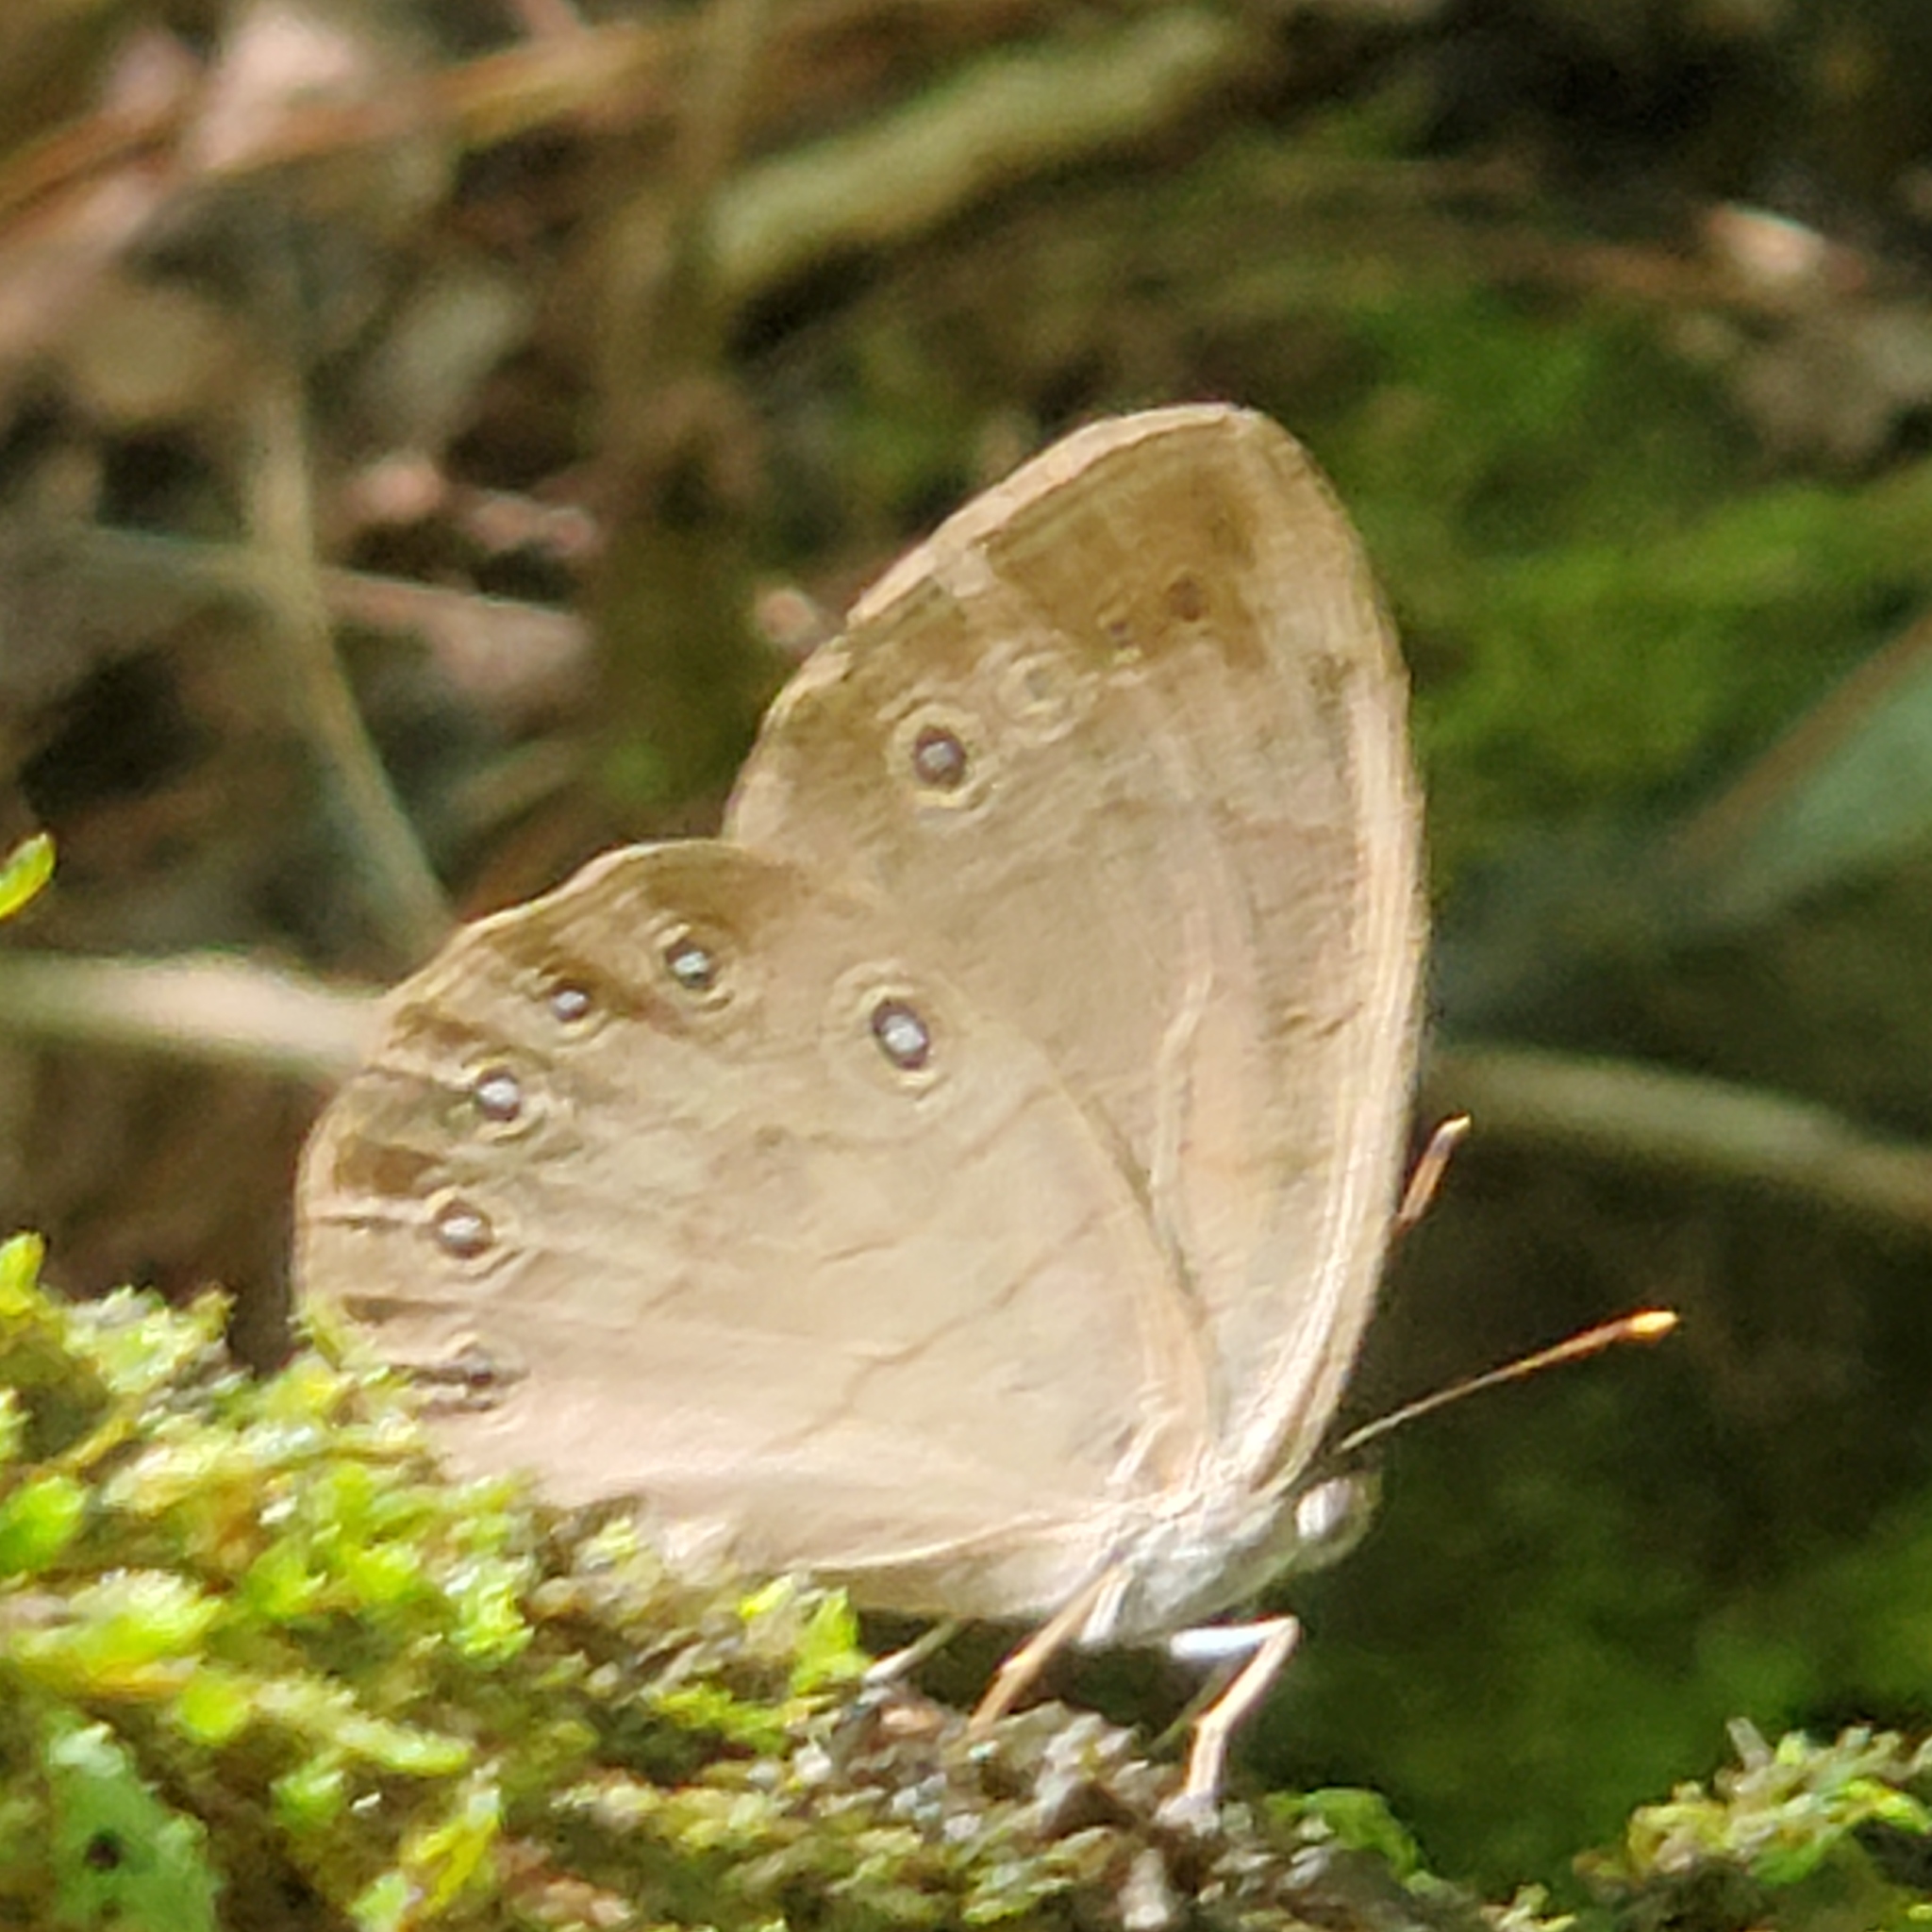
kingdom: Animalia
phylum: Arthropoda
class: Insecta
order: Lepidoptera
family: Nymphalidae
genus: Lethe
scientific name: Lethe eurydice
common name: Eyed brown
